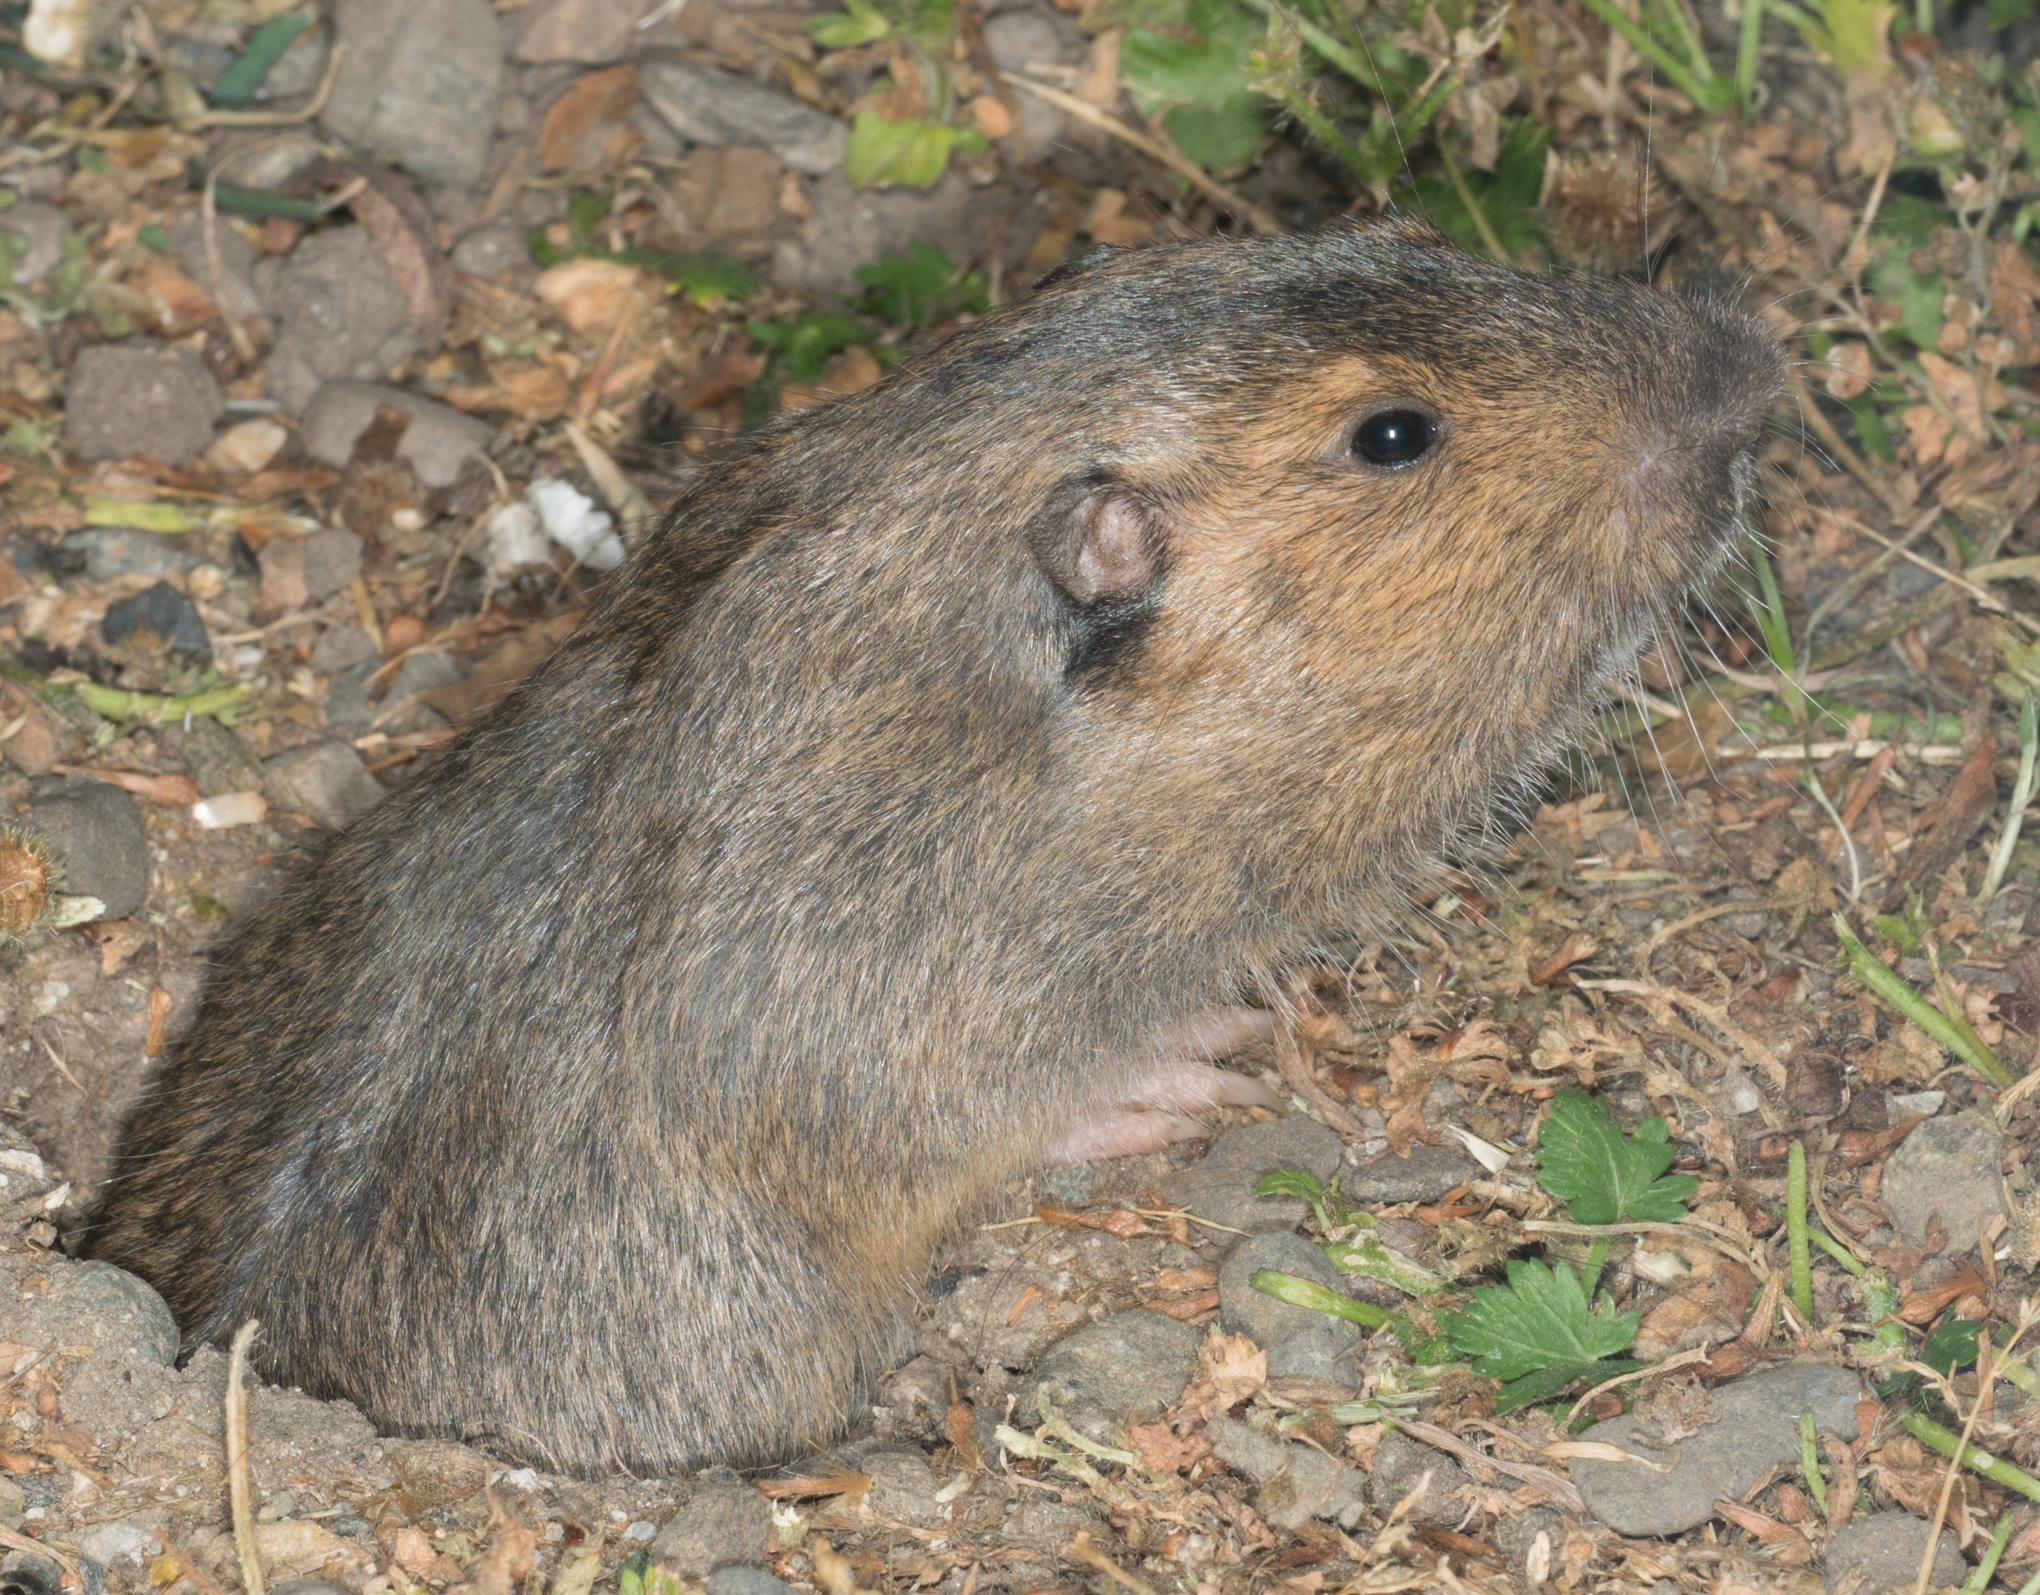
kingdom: Animalia
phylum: Chordata
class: Mammalia
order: Rodentia
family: Geomyidae
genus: Thomomys
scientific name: Thomomys bottae
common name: Botta's pocket gopher
